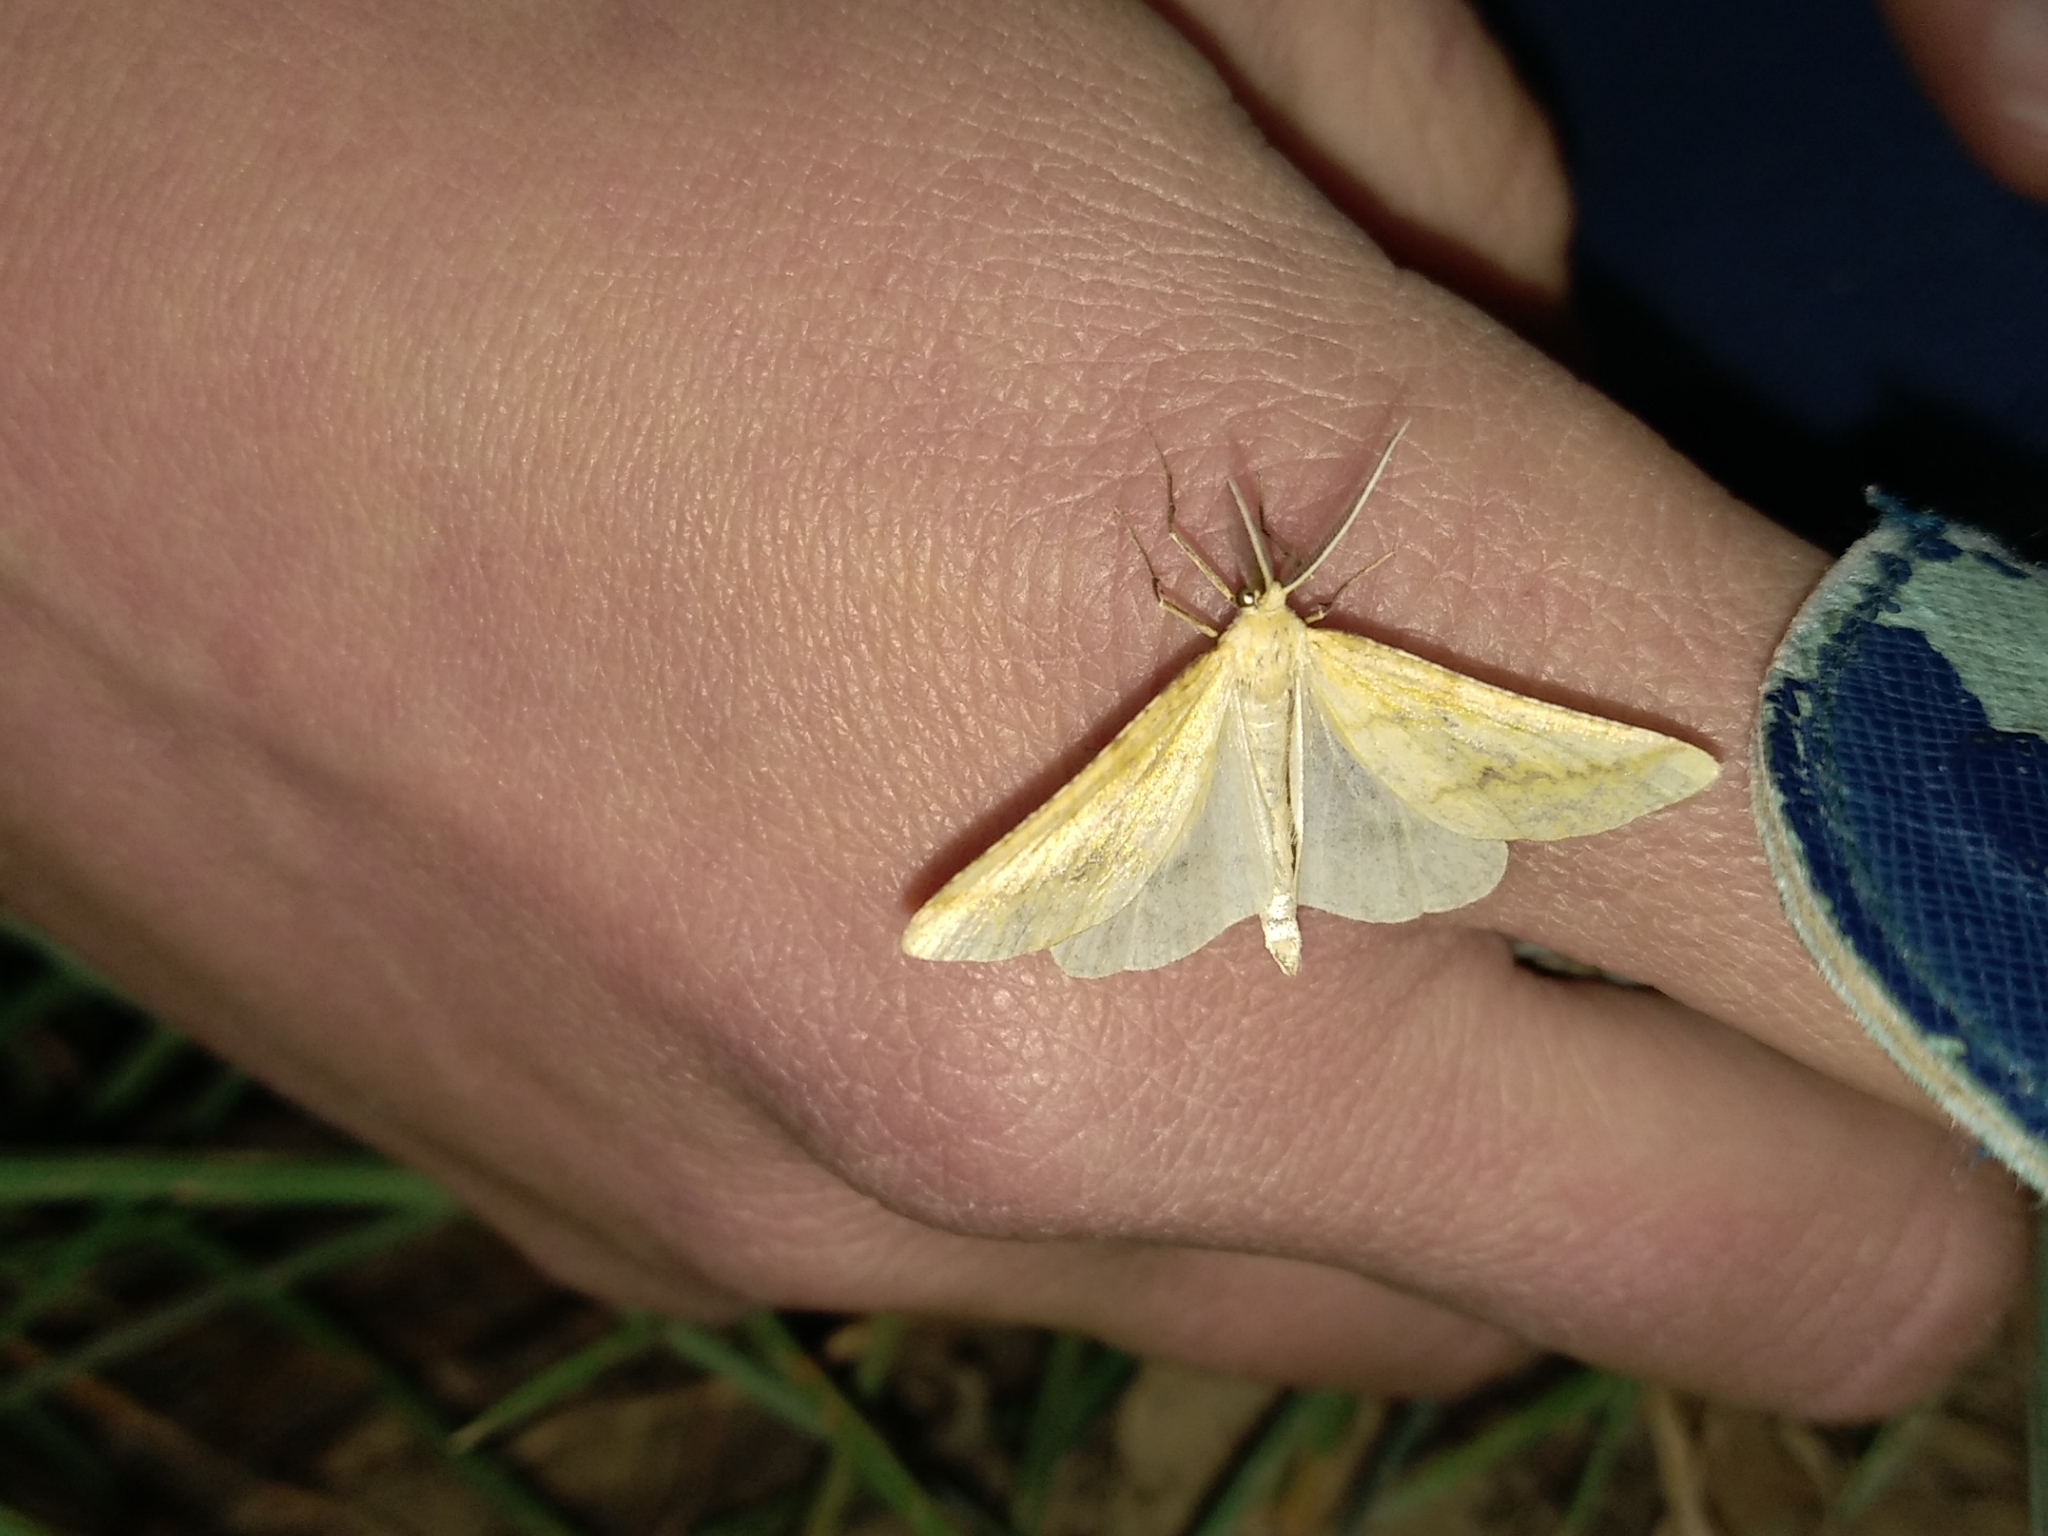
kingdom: Animalia
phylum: Arthropoda
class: Insecta
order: Lepidoptera
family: Geometridae
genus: Aspitates
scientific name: Aspitates ochrearia
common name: Yellow belle
